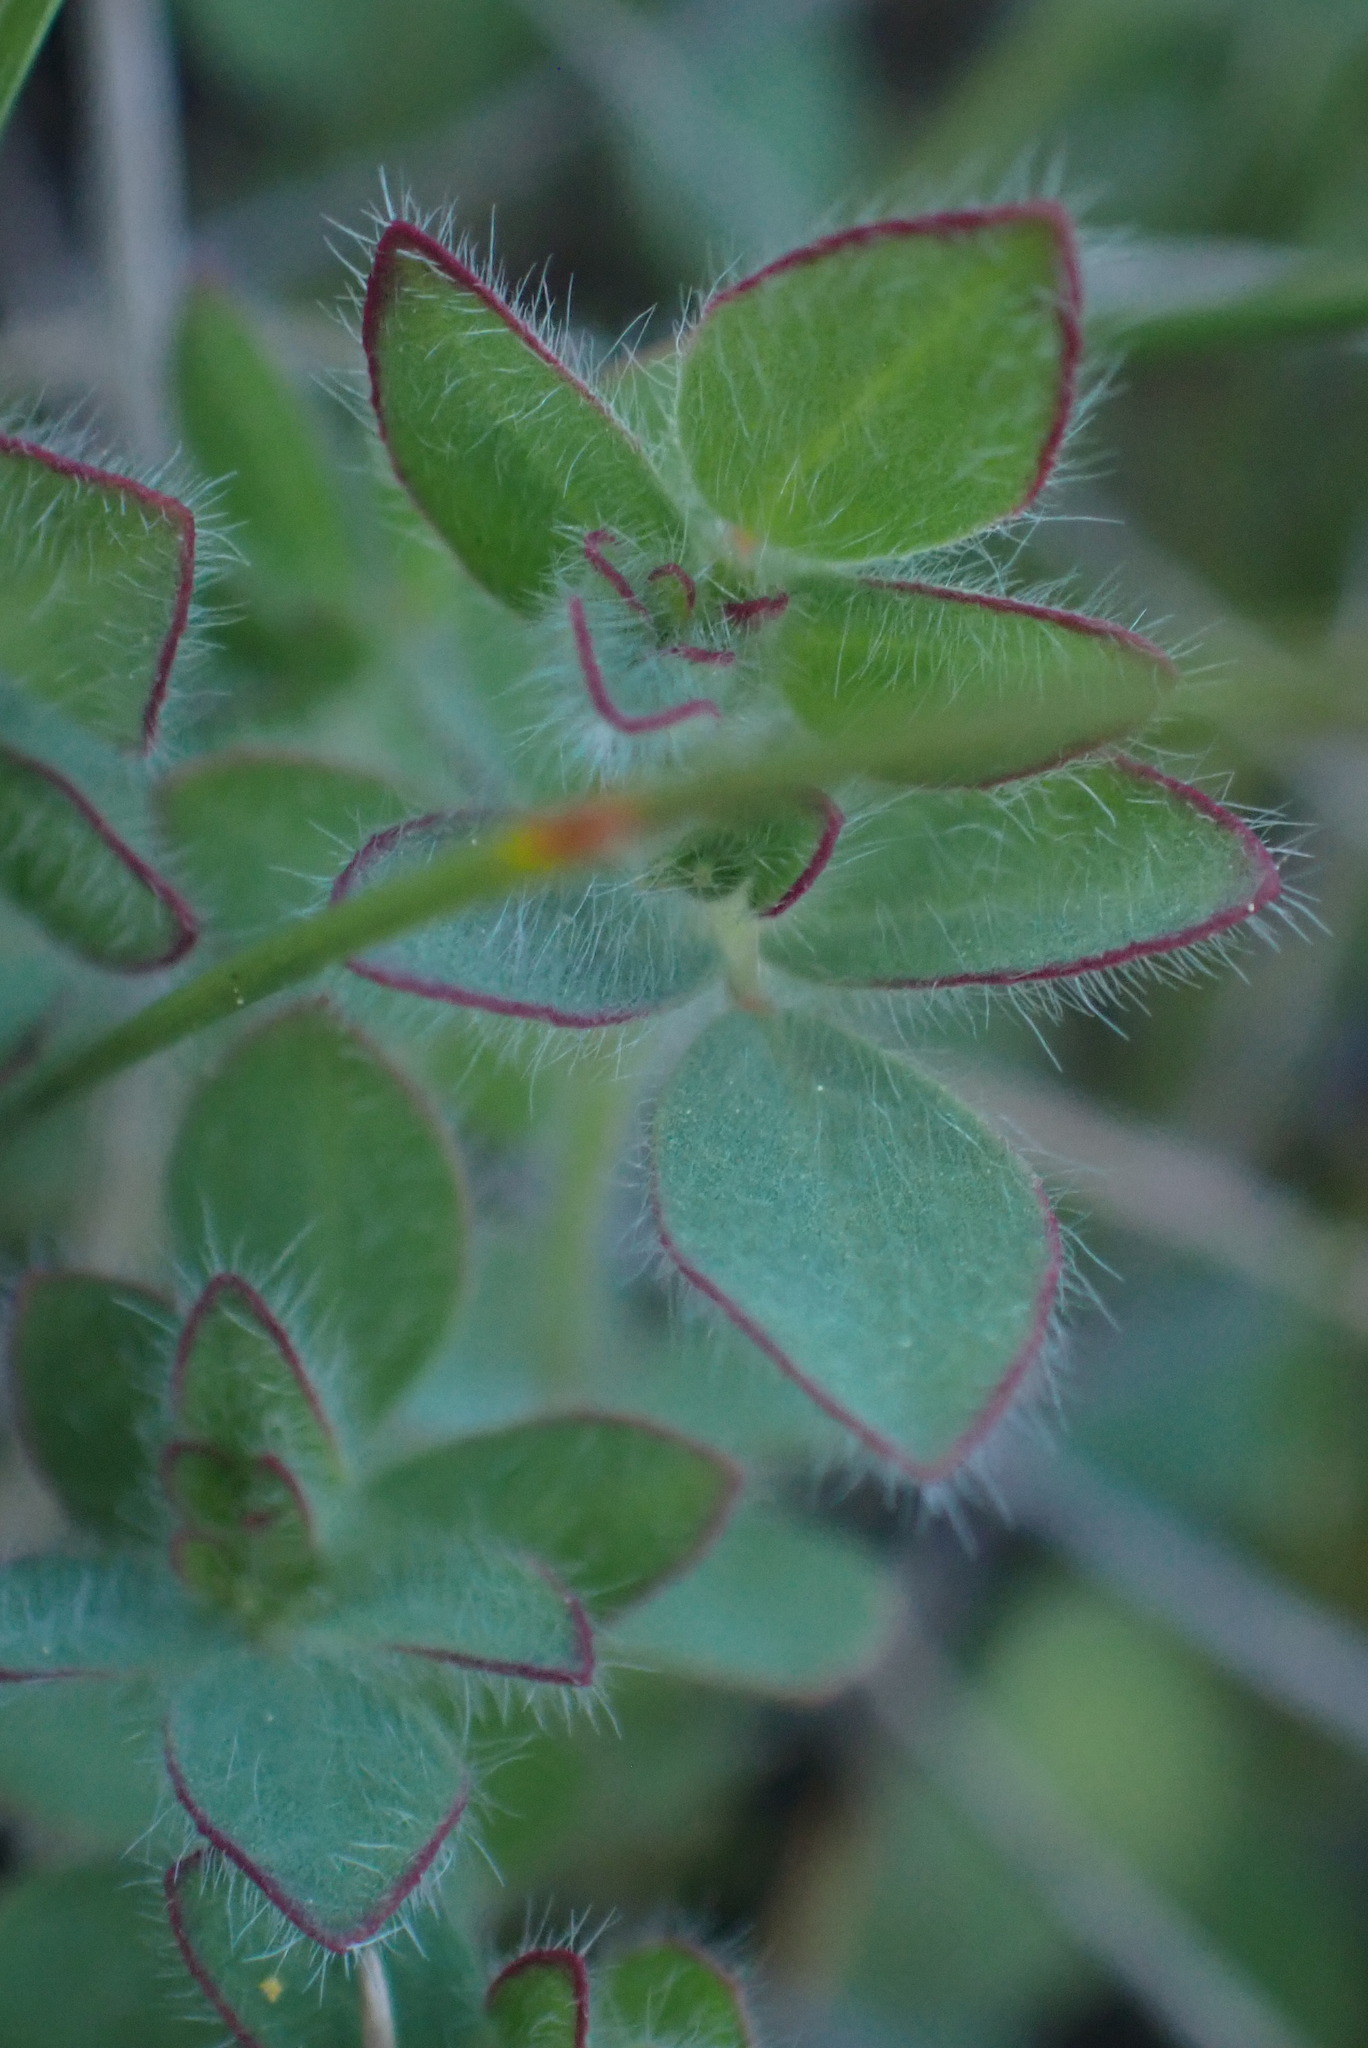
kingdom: Plantae
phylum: Tracheophyta
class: Magnoliopsida
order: Fabales
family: Fabaceae
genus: Acmispon
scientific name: Acmispon americanus
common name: American bird's-foot trefoil
